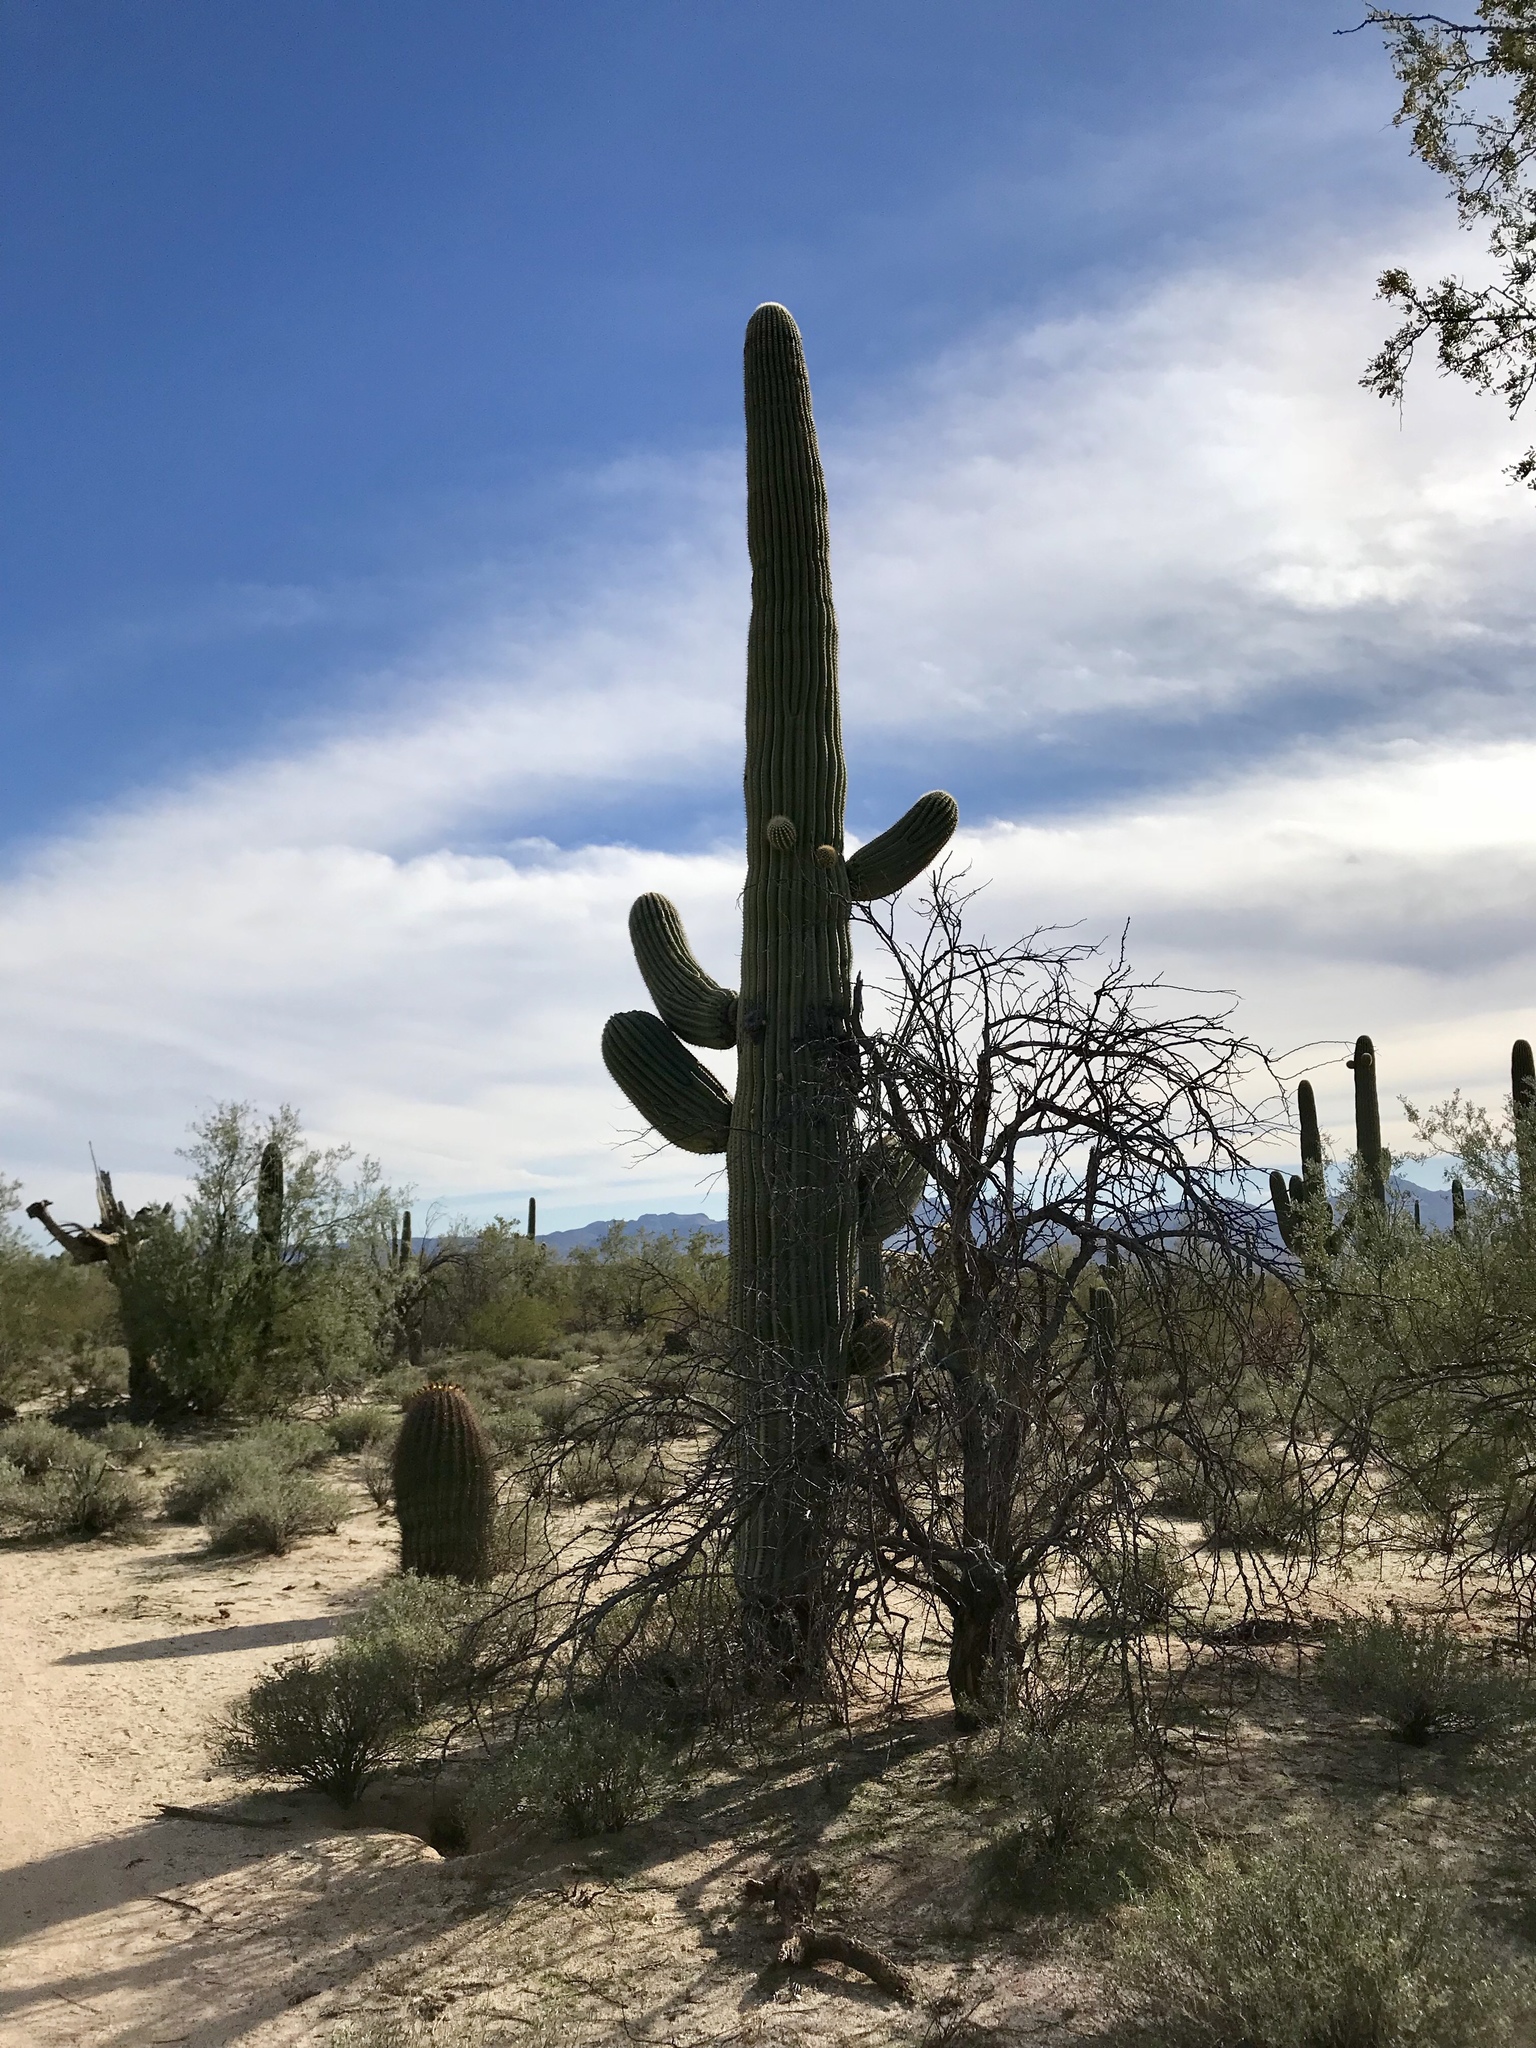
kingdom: Plantae
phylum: Tracheophyta
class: Magnoliopsida
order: Caryophyllales
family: Cactaceae
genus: Carnegiea
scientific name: Carnegiea gigantea
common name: Saguaro
